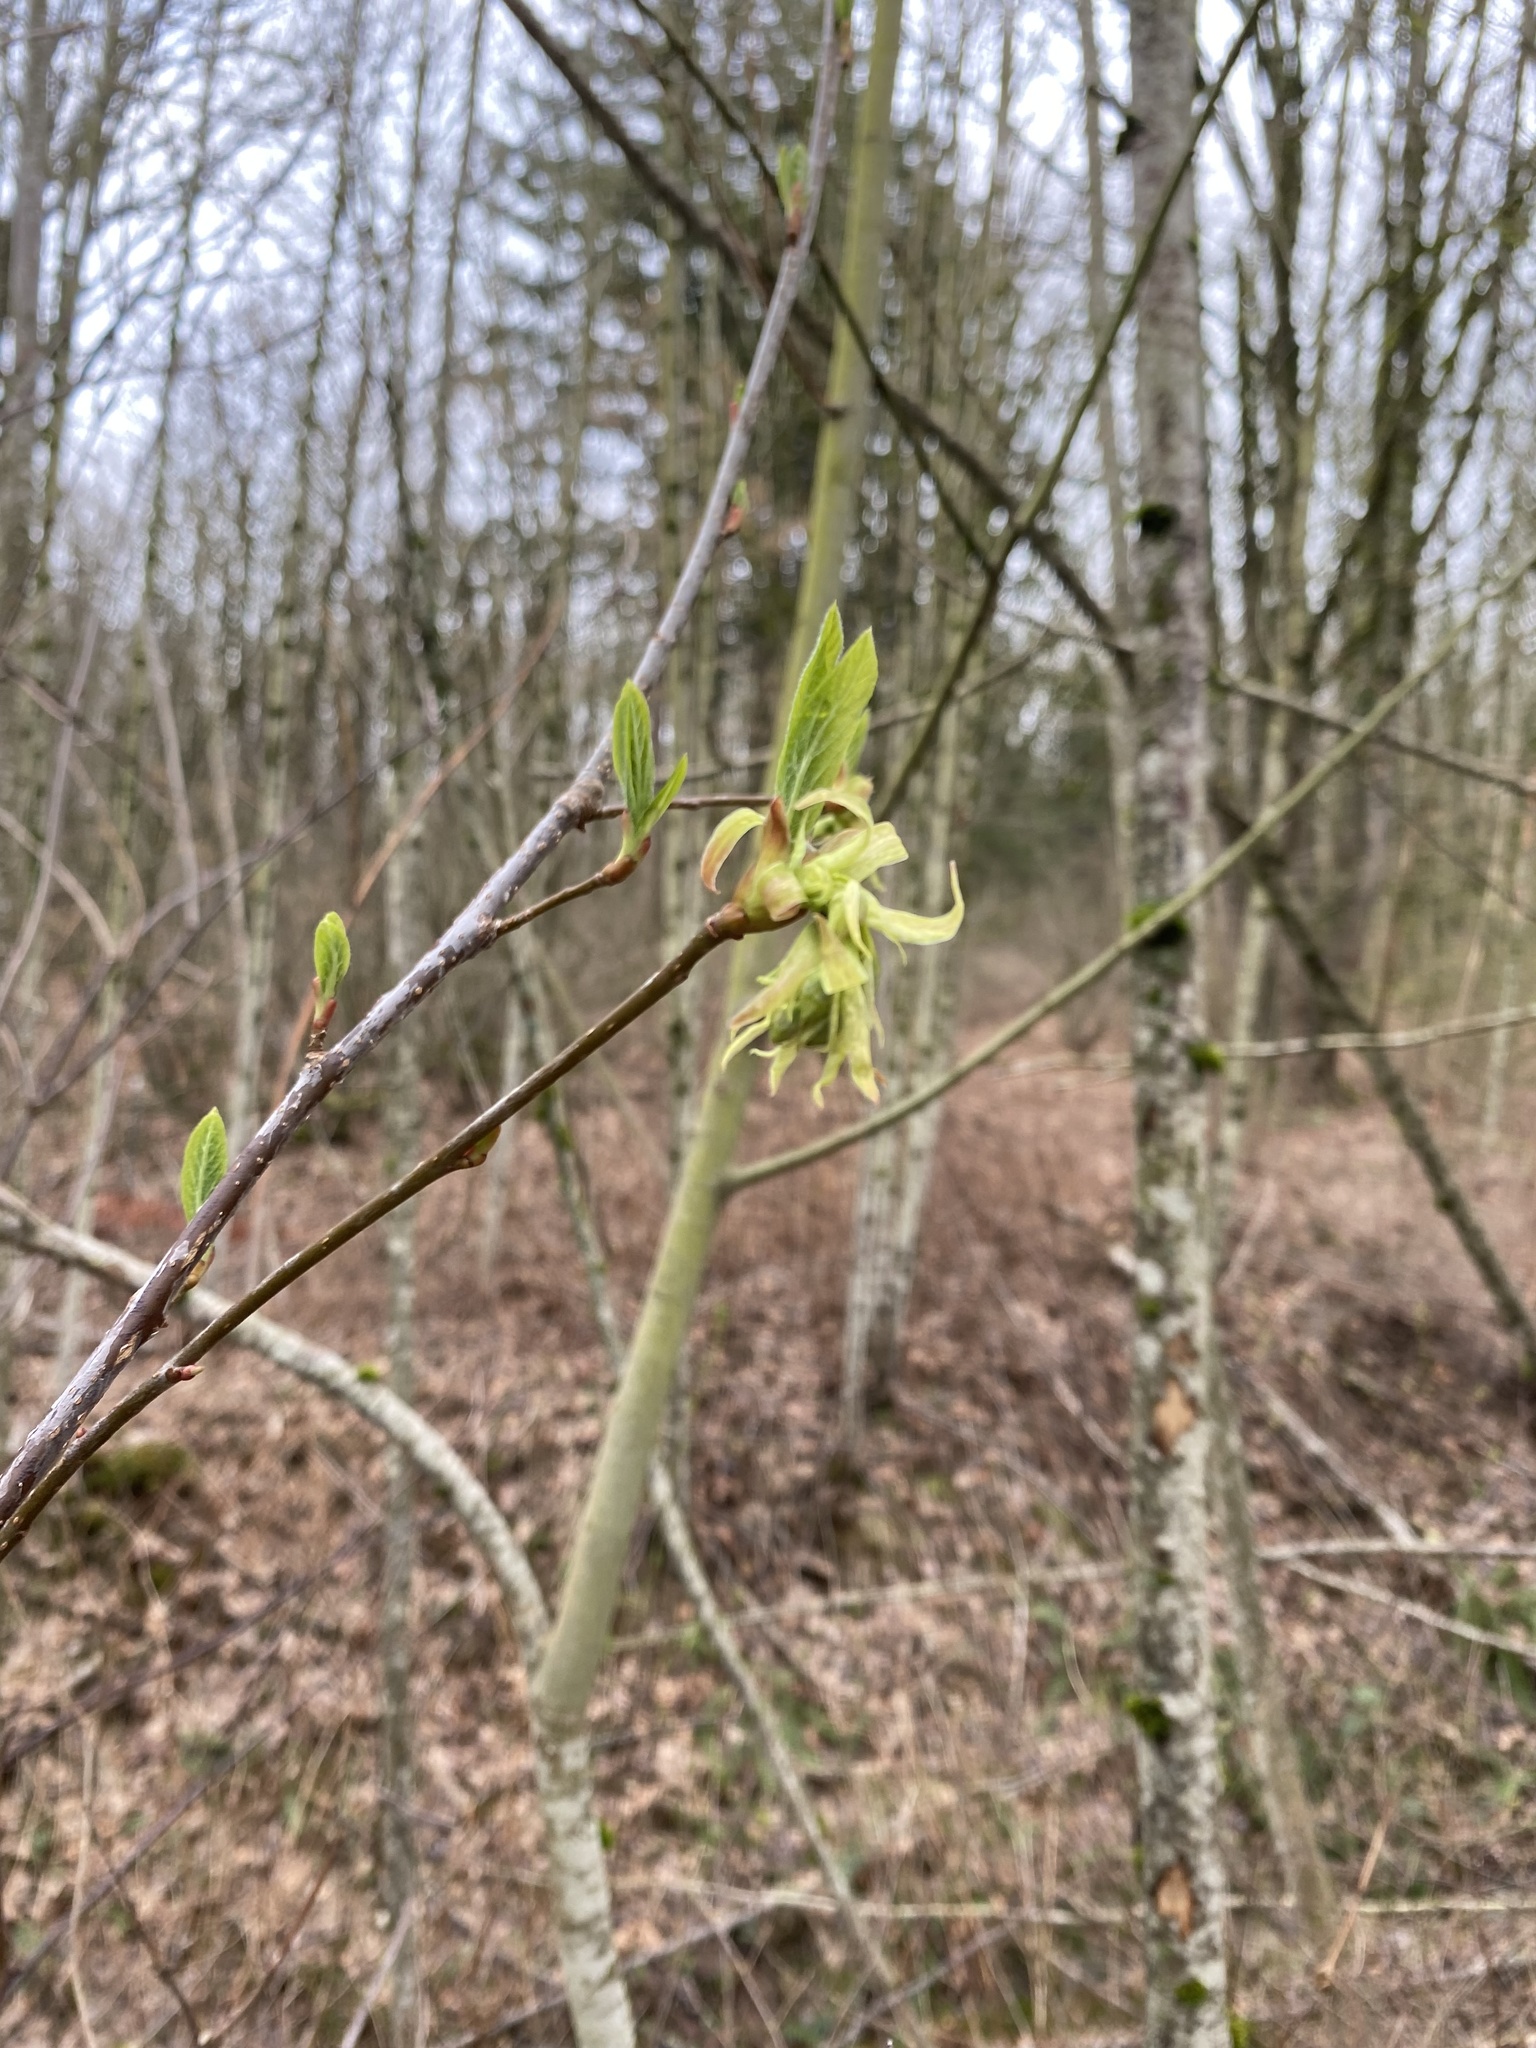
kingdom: Plantae
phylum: Tracheophyta
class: Magnoliopsida
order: Rosales
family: Rosaceae
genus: Oemleria
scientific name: Oemleria cerasiformis
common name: Osoberry
